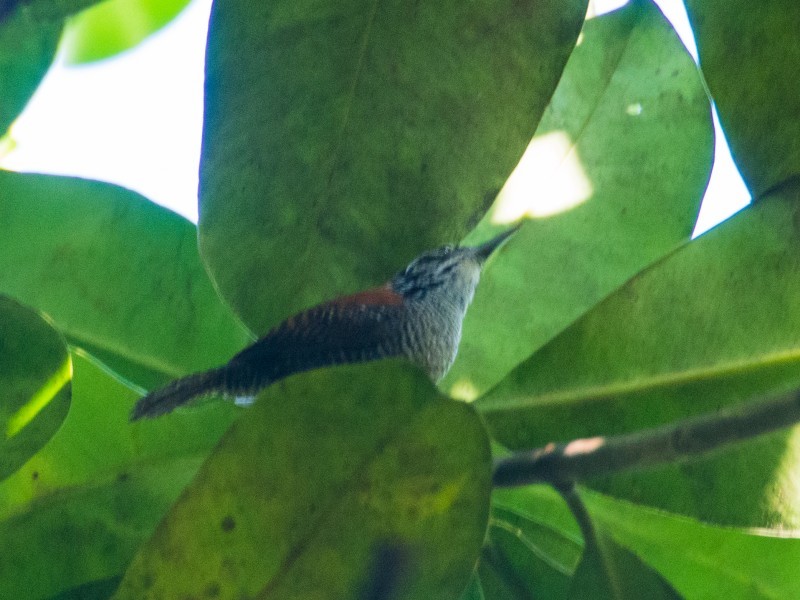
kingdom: Animalia
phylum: Chordata
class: Aves
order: Passeriformes
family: Troglodytidae
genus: Cantorchilus
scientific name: Cantorchilus semibadius
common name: Riverside wren
